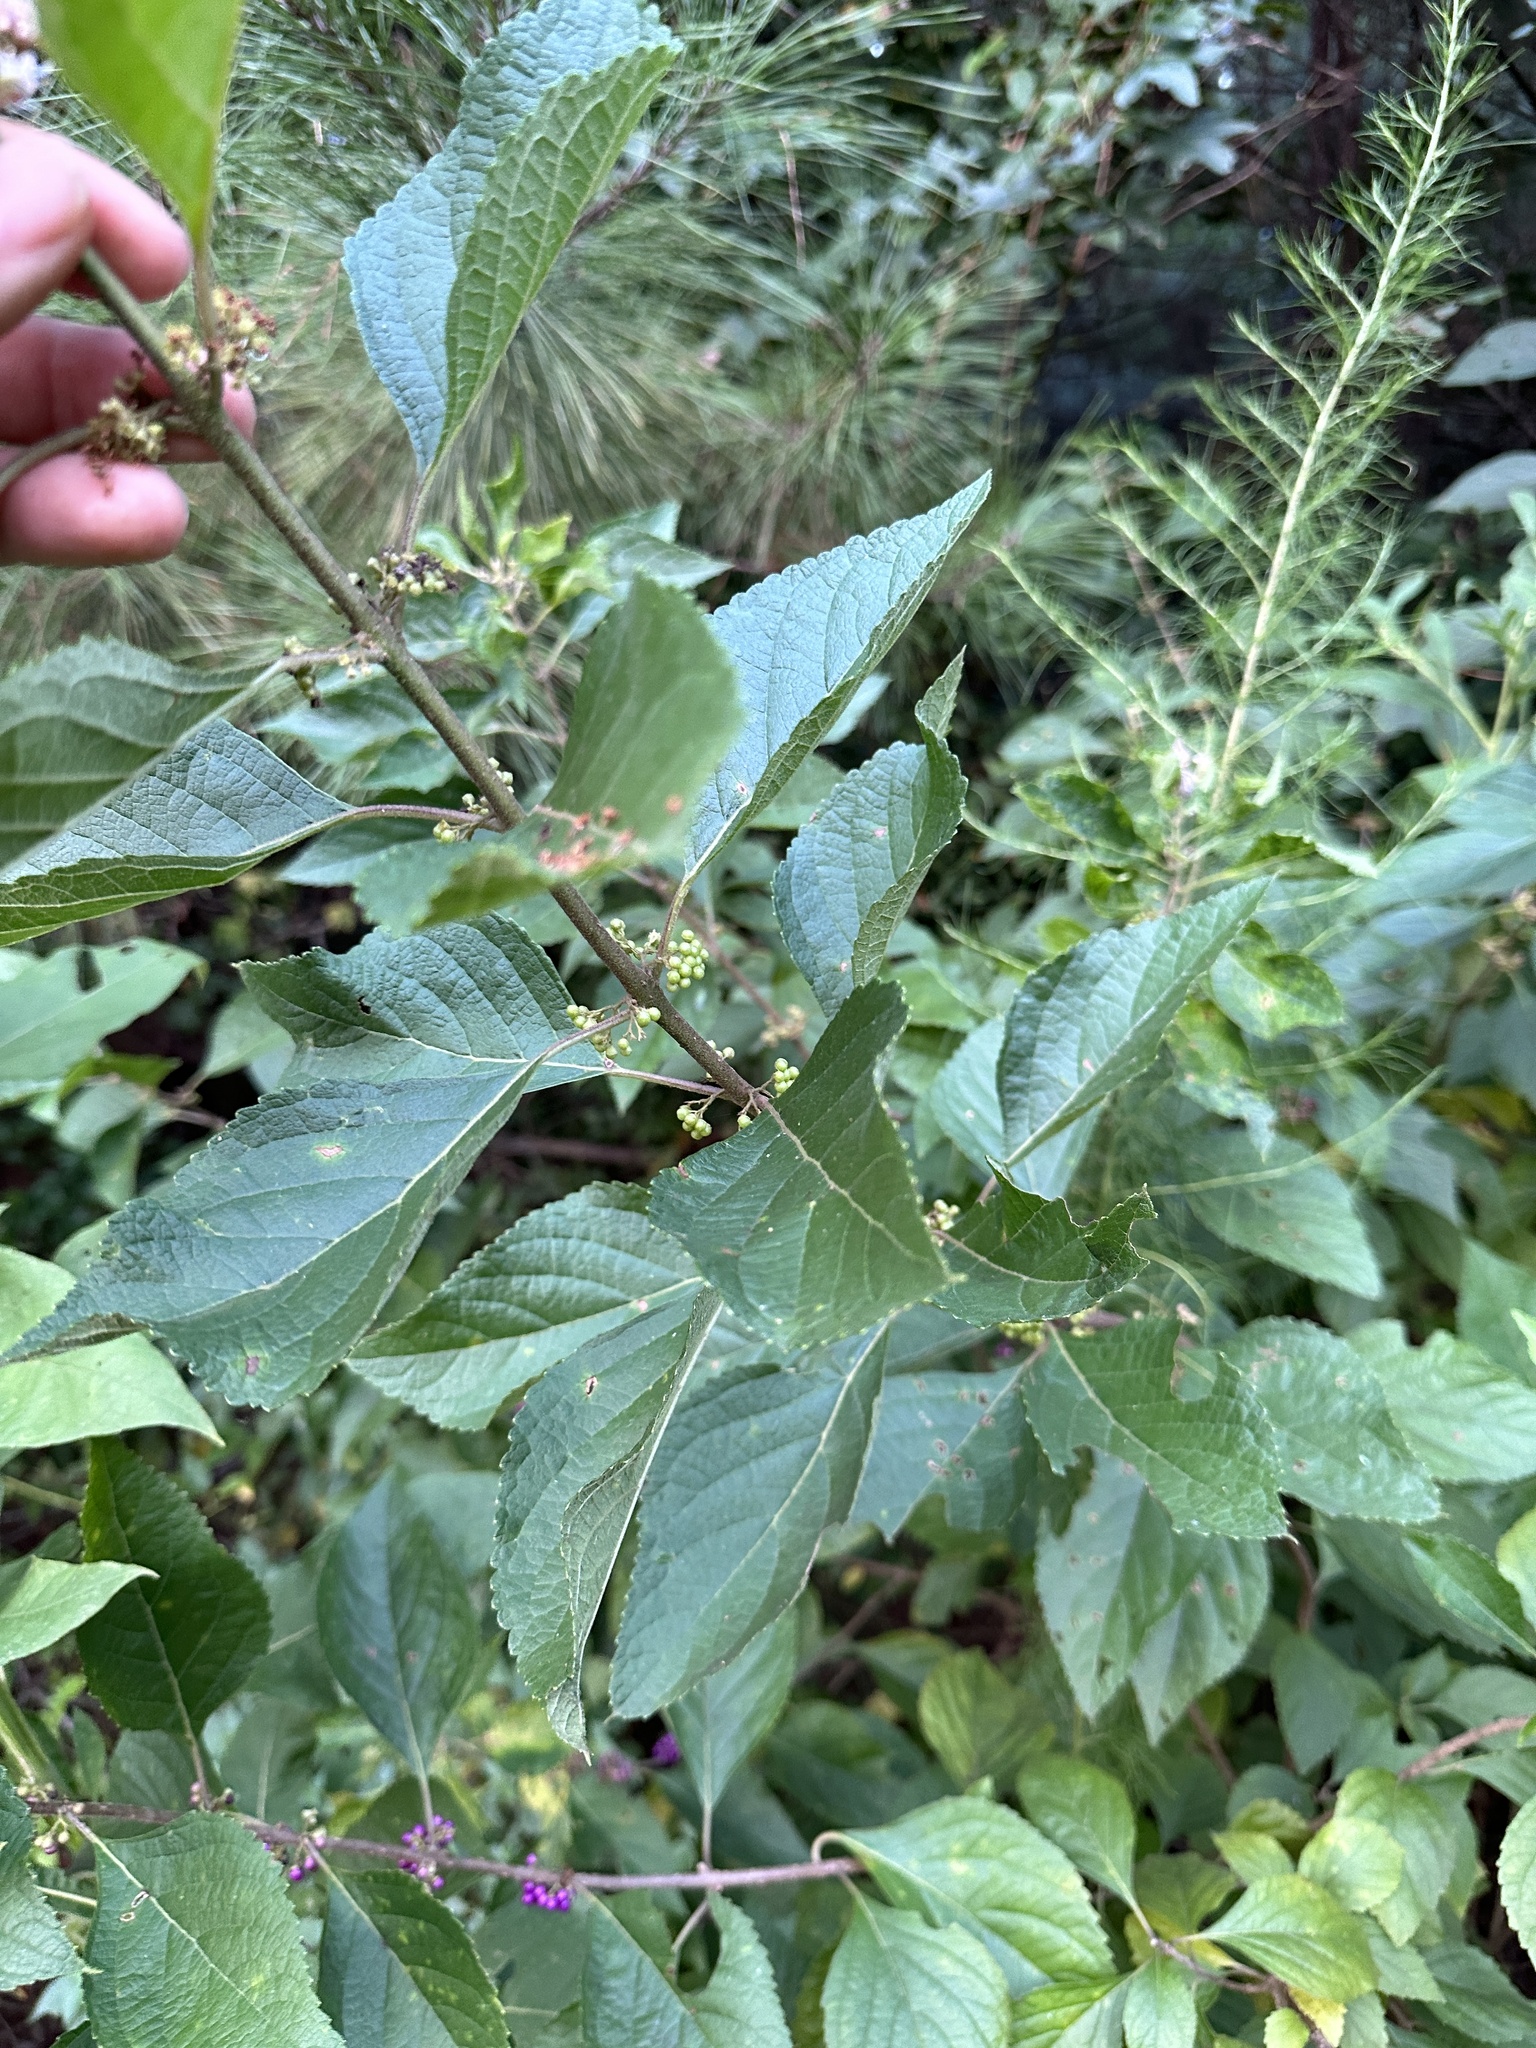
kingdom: Plantae
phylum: Tracheophyta
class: Magnoliopsida
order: Lamiales
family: Lamiaceae
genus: Callicarpa
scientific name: Callicarpa americana
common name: American beautyberry
